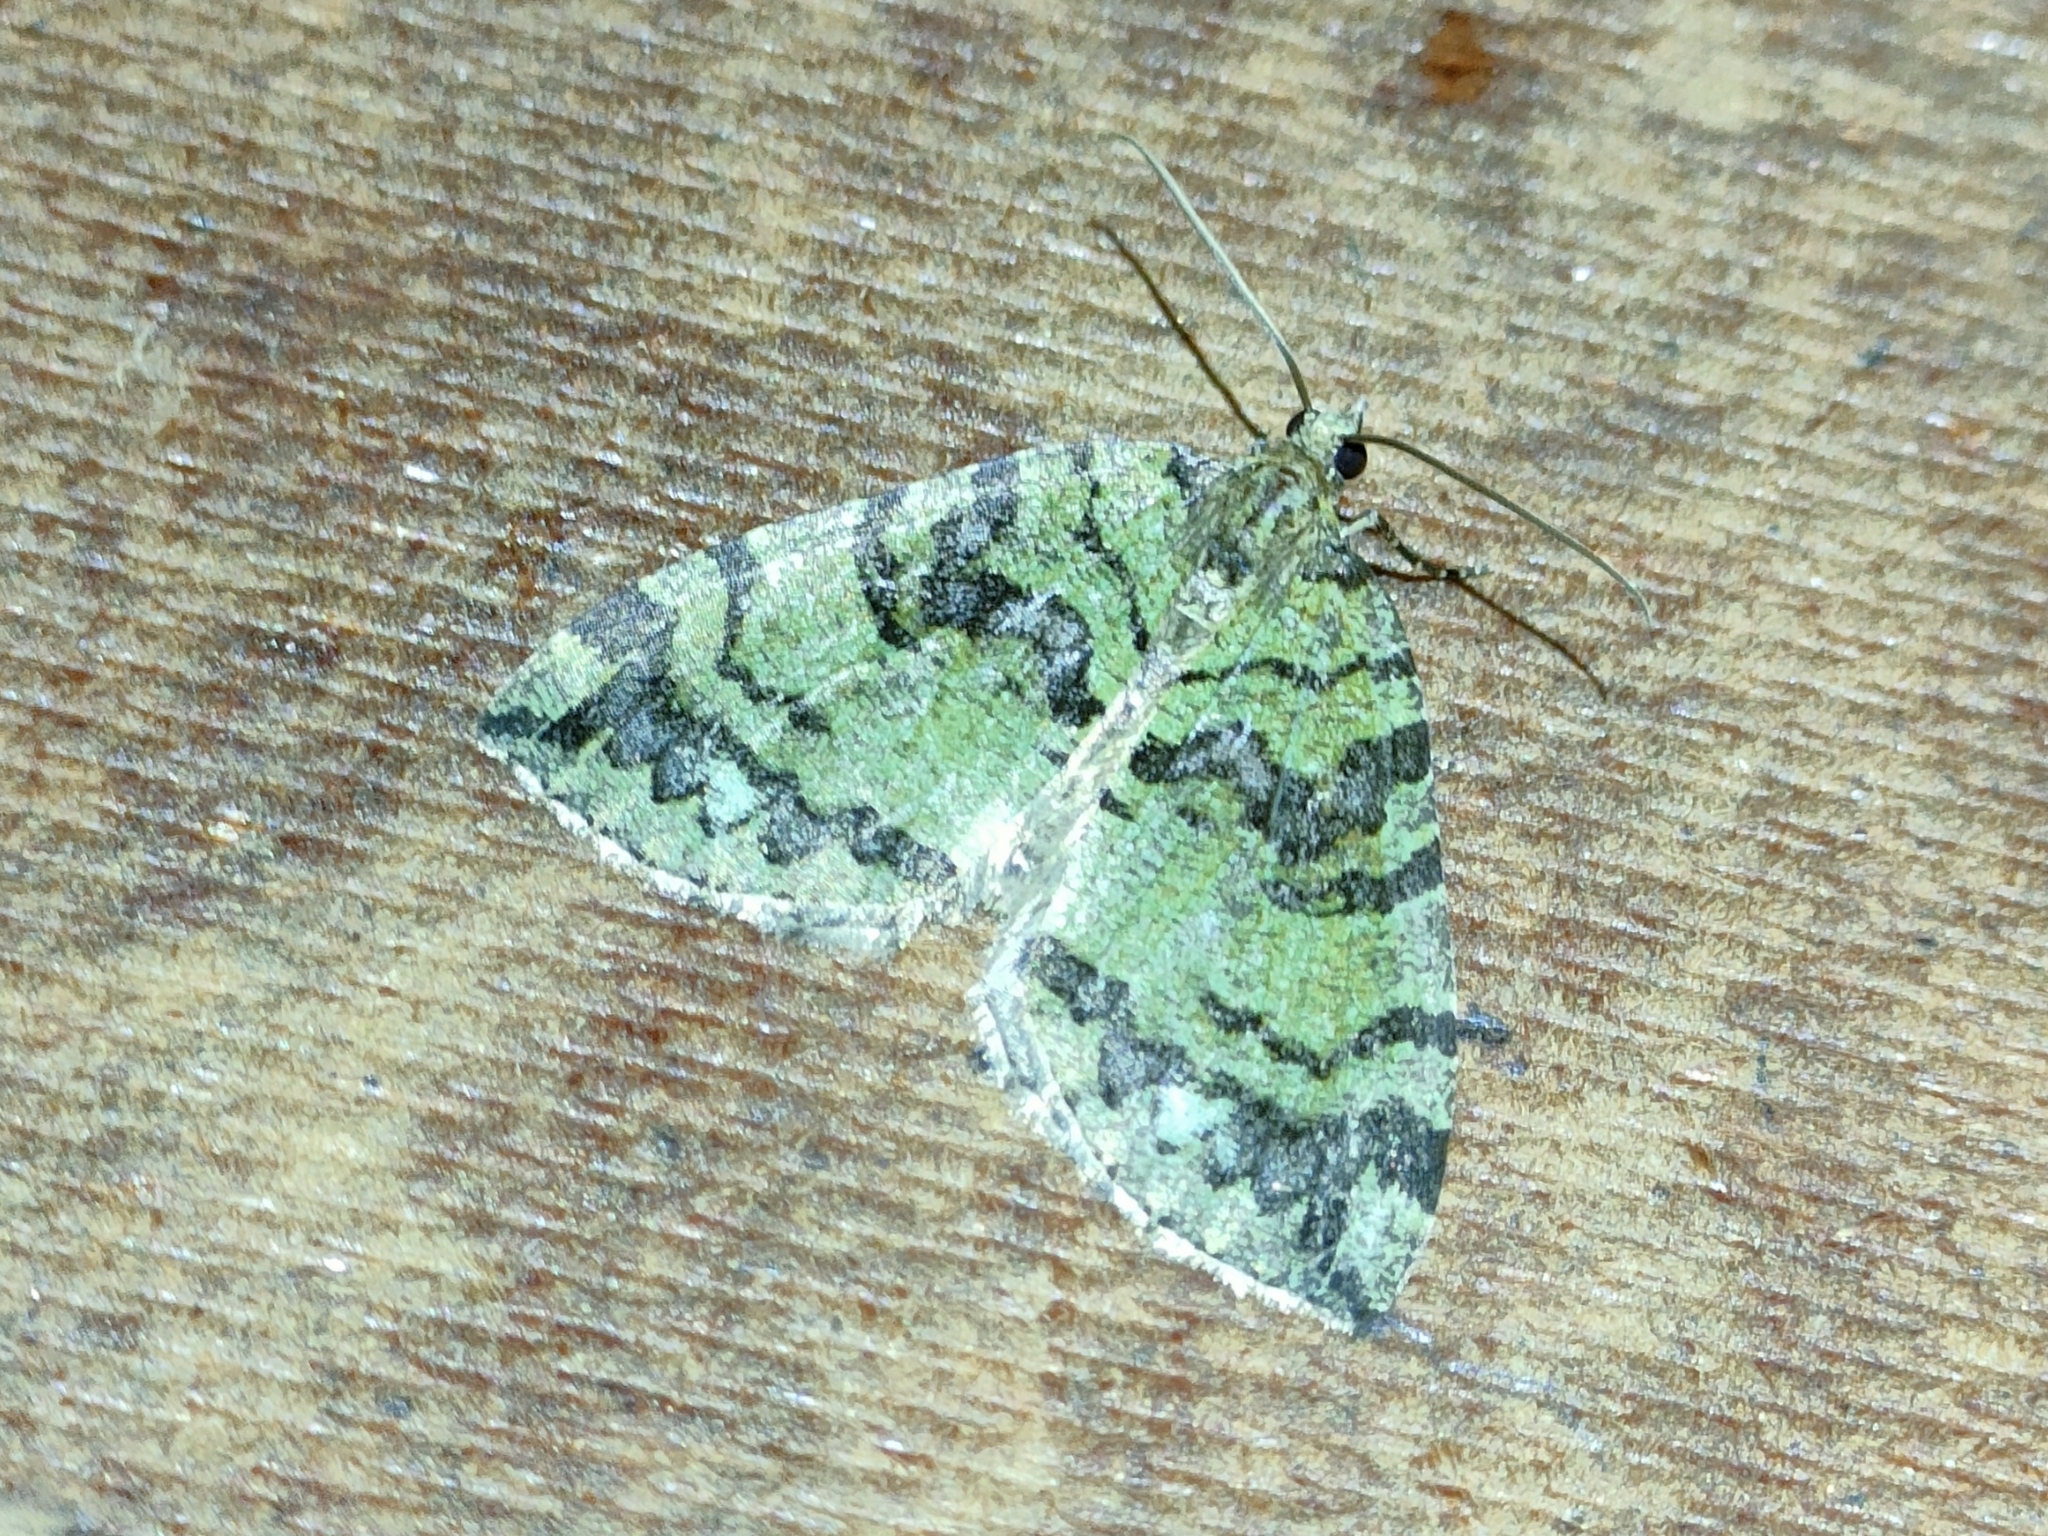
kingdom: Animalia
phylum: Arthropoda
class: Insecta
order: Lepidoptera
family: Geometridae
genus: Hydriomena
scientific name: Hydriomena furcata
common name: July highflyer
